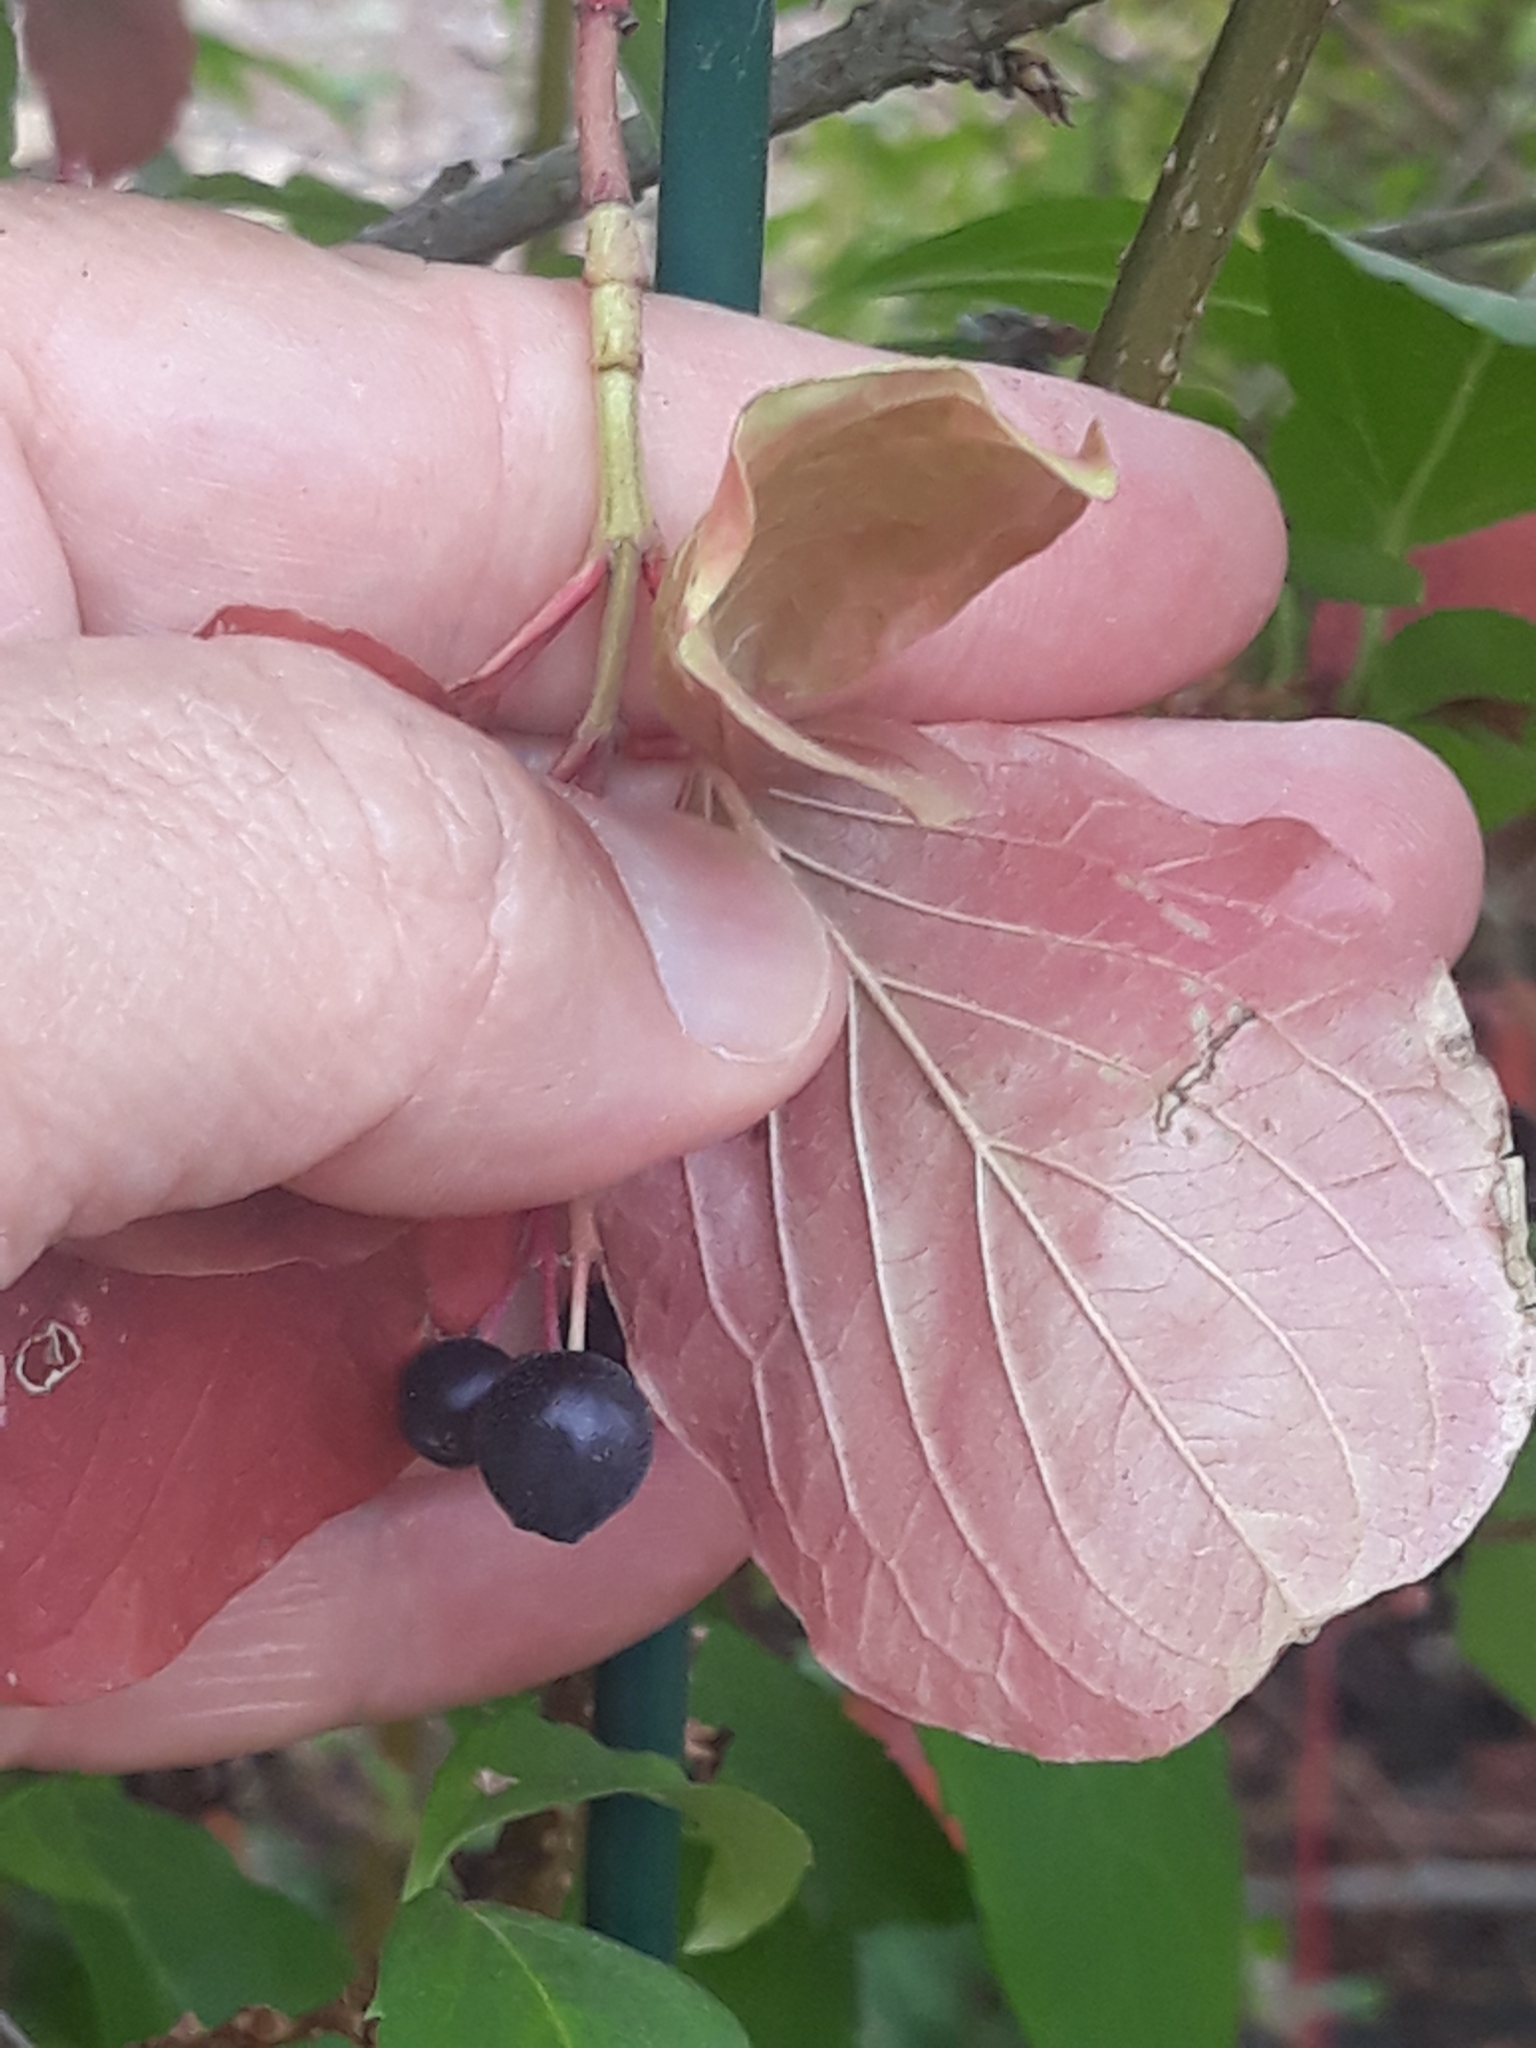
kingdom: Plantae
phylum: Tracheophyta
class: Magnoliopsida
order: Cornales
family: Cornaceae
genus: Cornus
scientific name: Cornus sanguinea
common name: Dogwood
